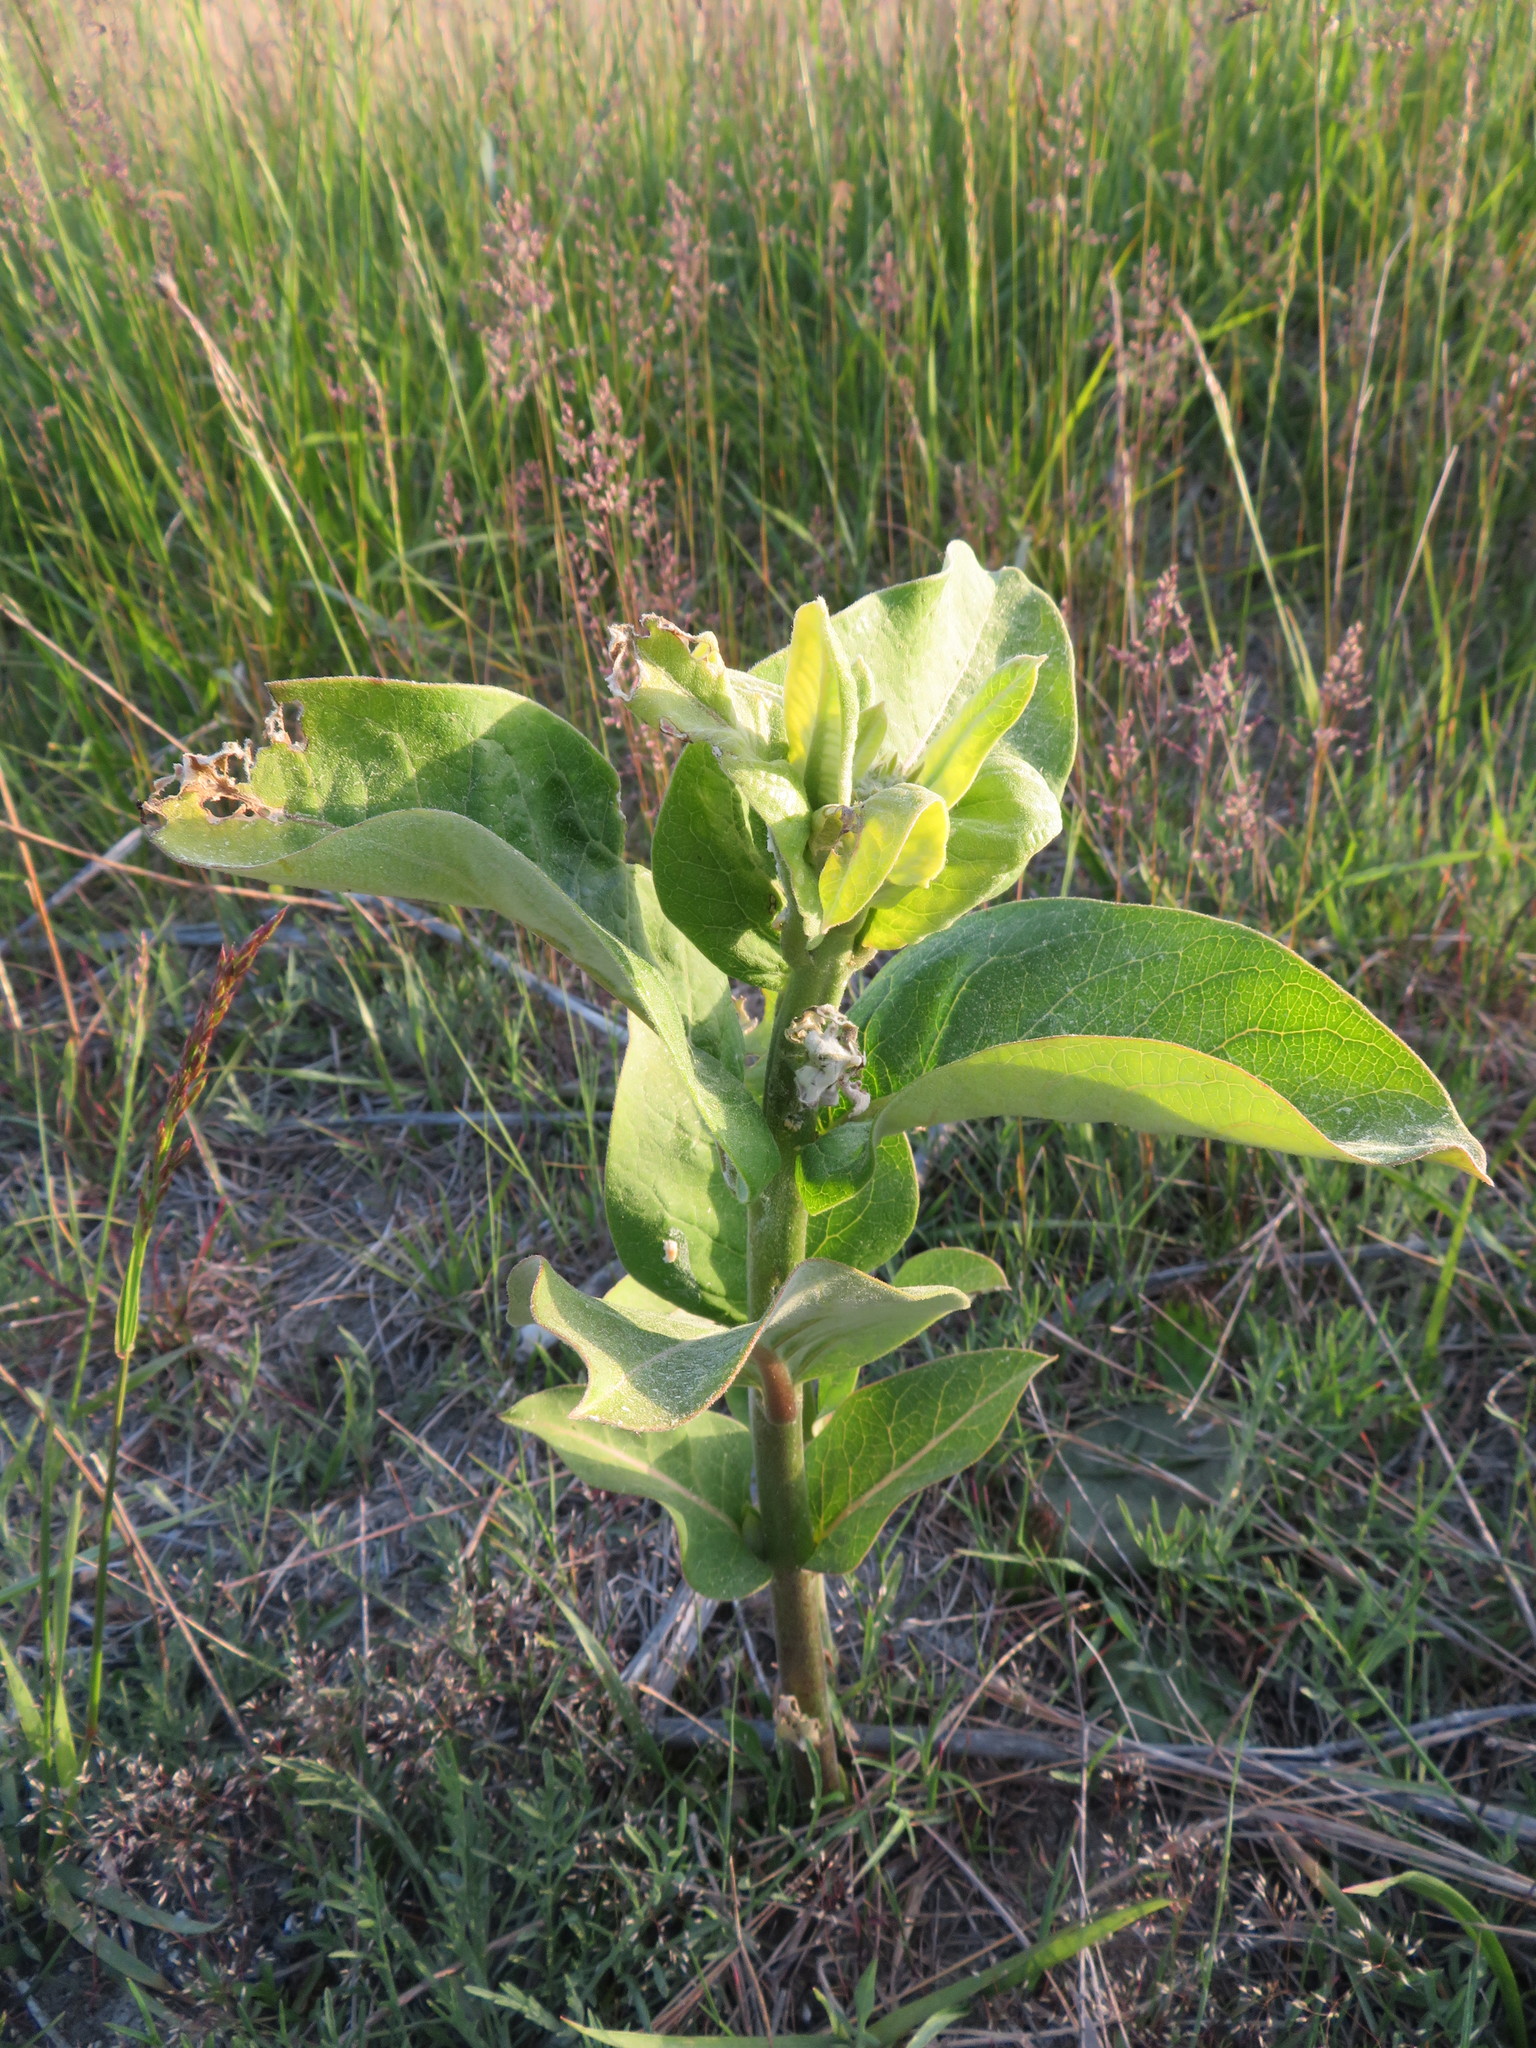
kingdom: Plantae
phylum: Tracheophyta
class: Magnoliopsida
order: Gentianales
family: Apocynaceae
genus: Asclepias
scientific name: Asclepias syriaca
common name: Common milkweed
